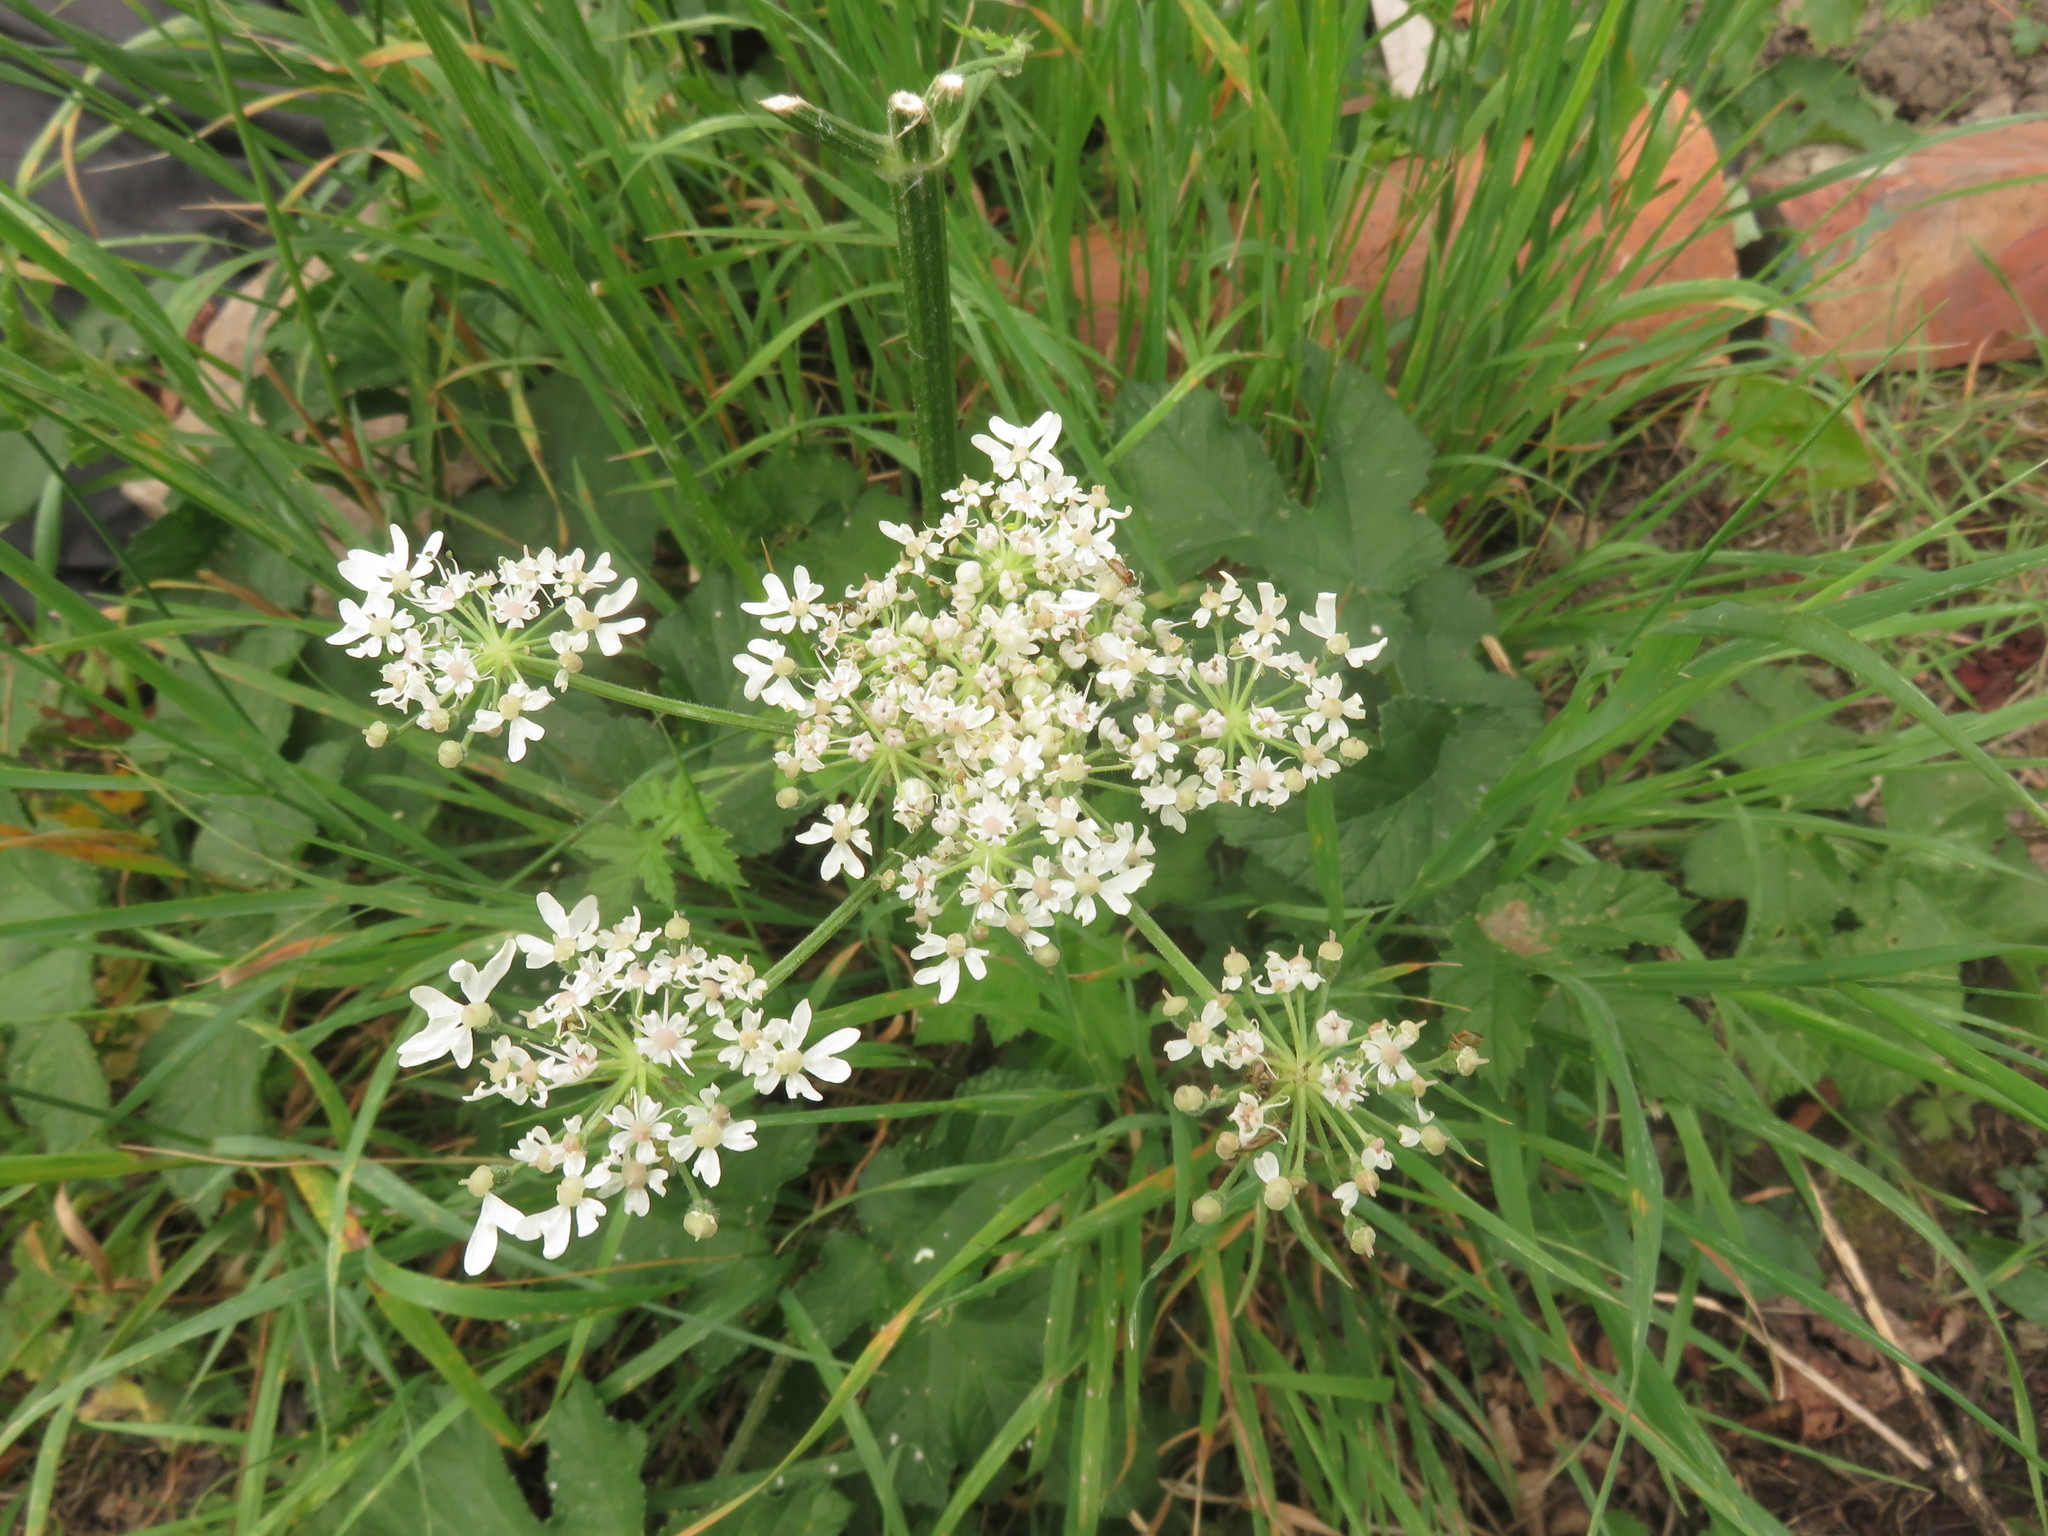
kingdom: Plantae
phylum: Tracheophyta
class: Magnoliopsida
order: Apiales
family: Apiaceae
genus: Heracleum
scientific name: Heracleum sphondylium
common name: Hogweed
